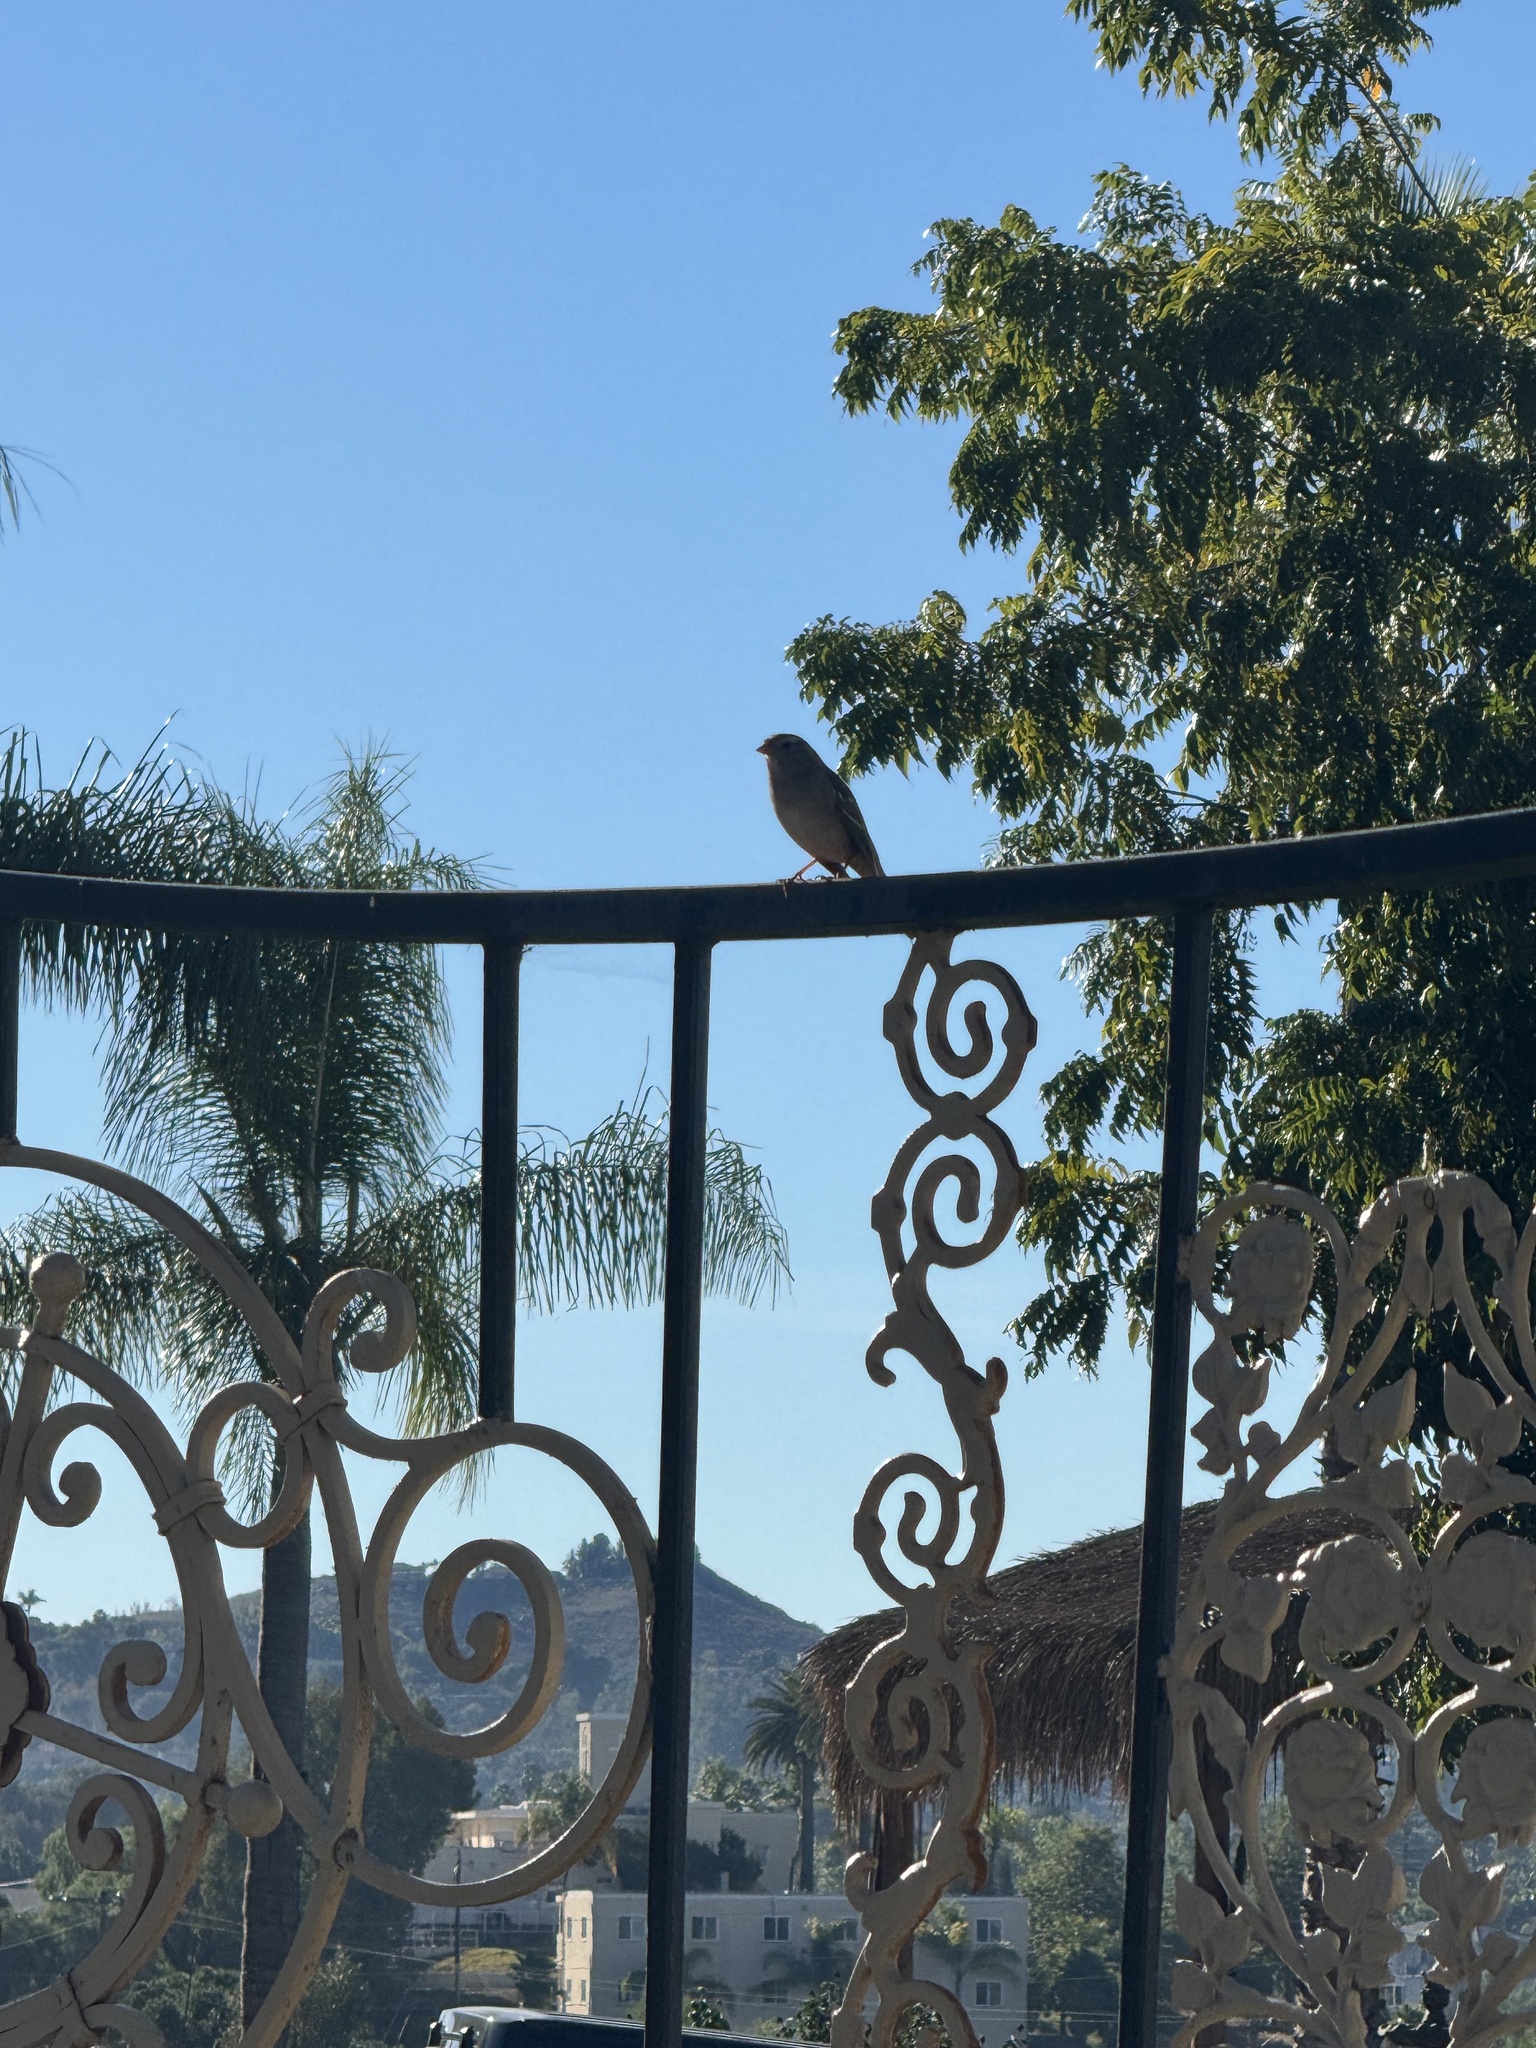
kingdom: Animalia
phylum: Chordata
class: Aves
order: Passeriformes
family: Passerellidae
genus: Zonotrichia
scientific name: Zonotrichia leucophrys
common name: White-crowned sparrow
